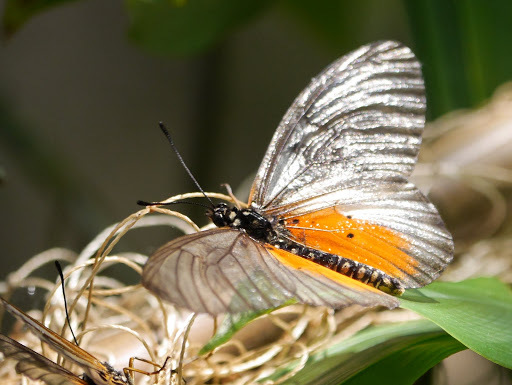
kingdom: Animalia
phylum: Arthropoda
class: Insecta
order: Lepidoptera
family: Nymphalidae
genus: Acraea
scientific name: Acraea
